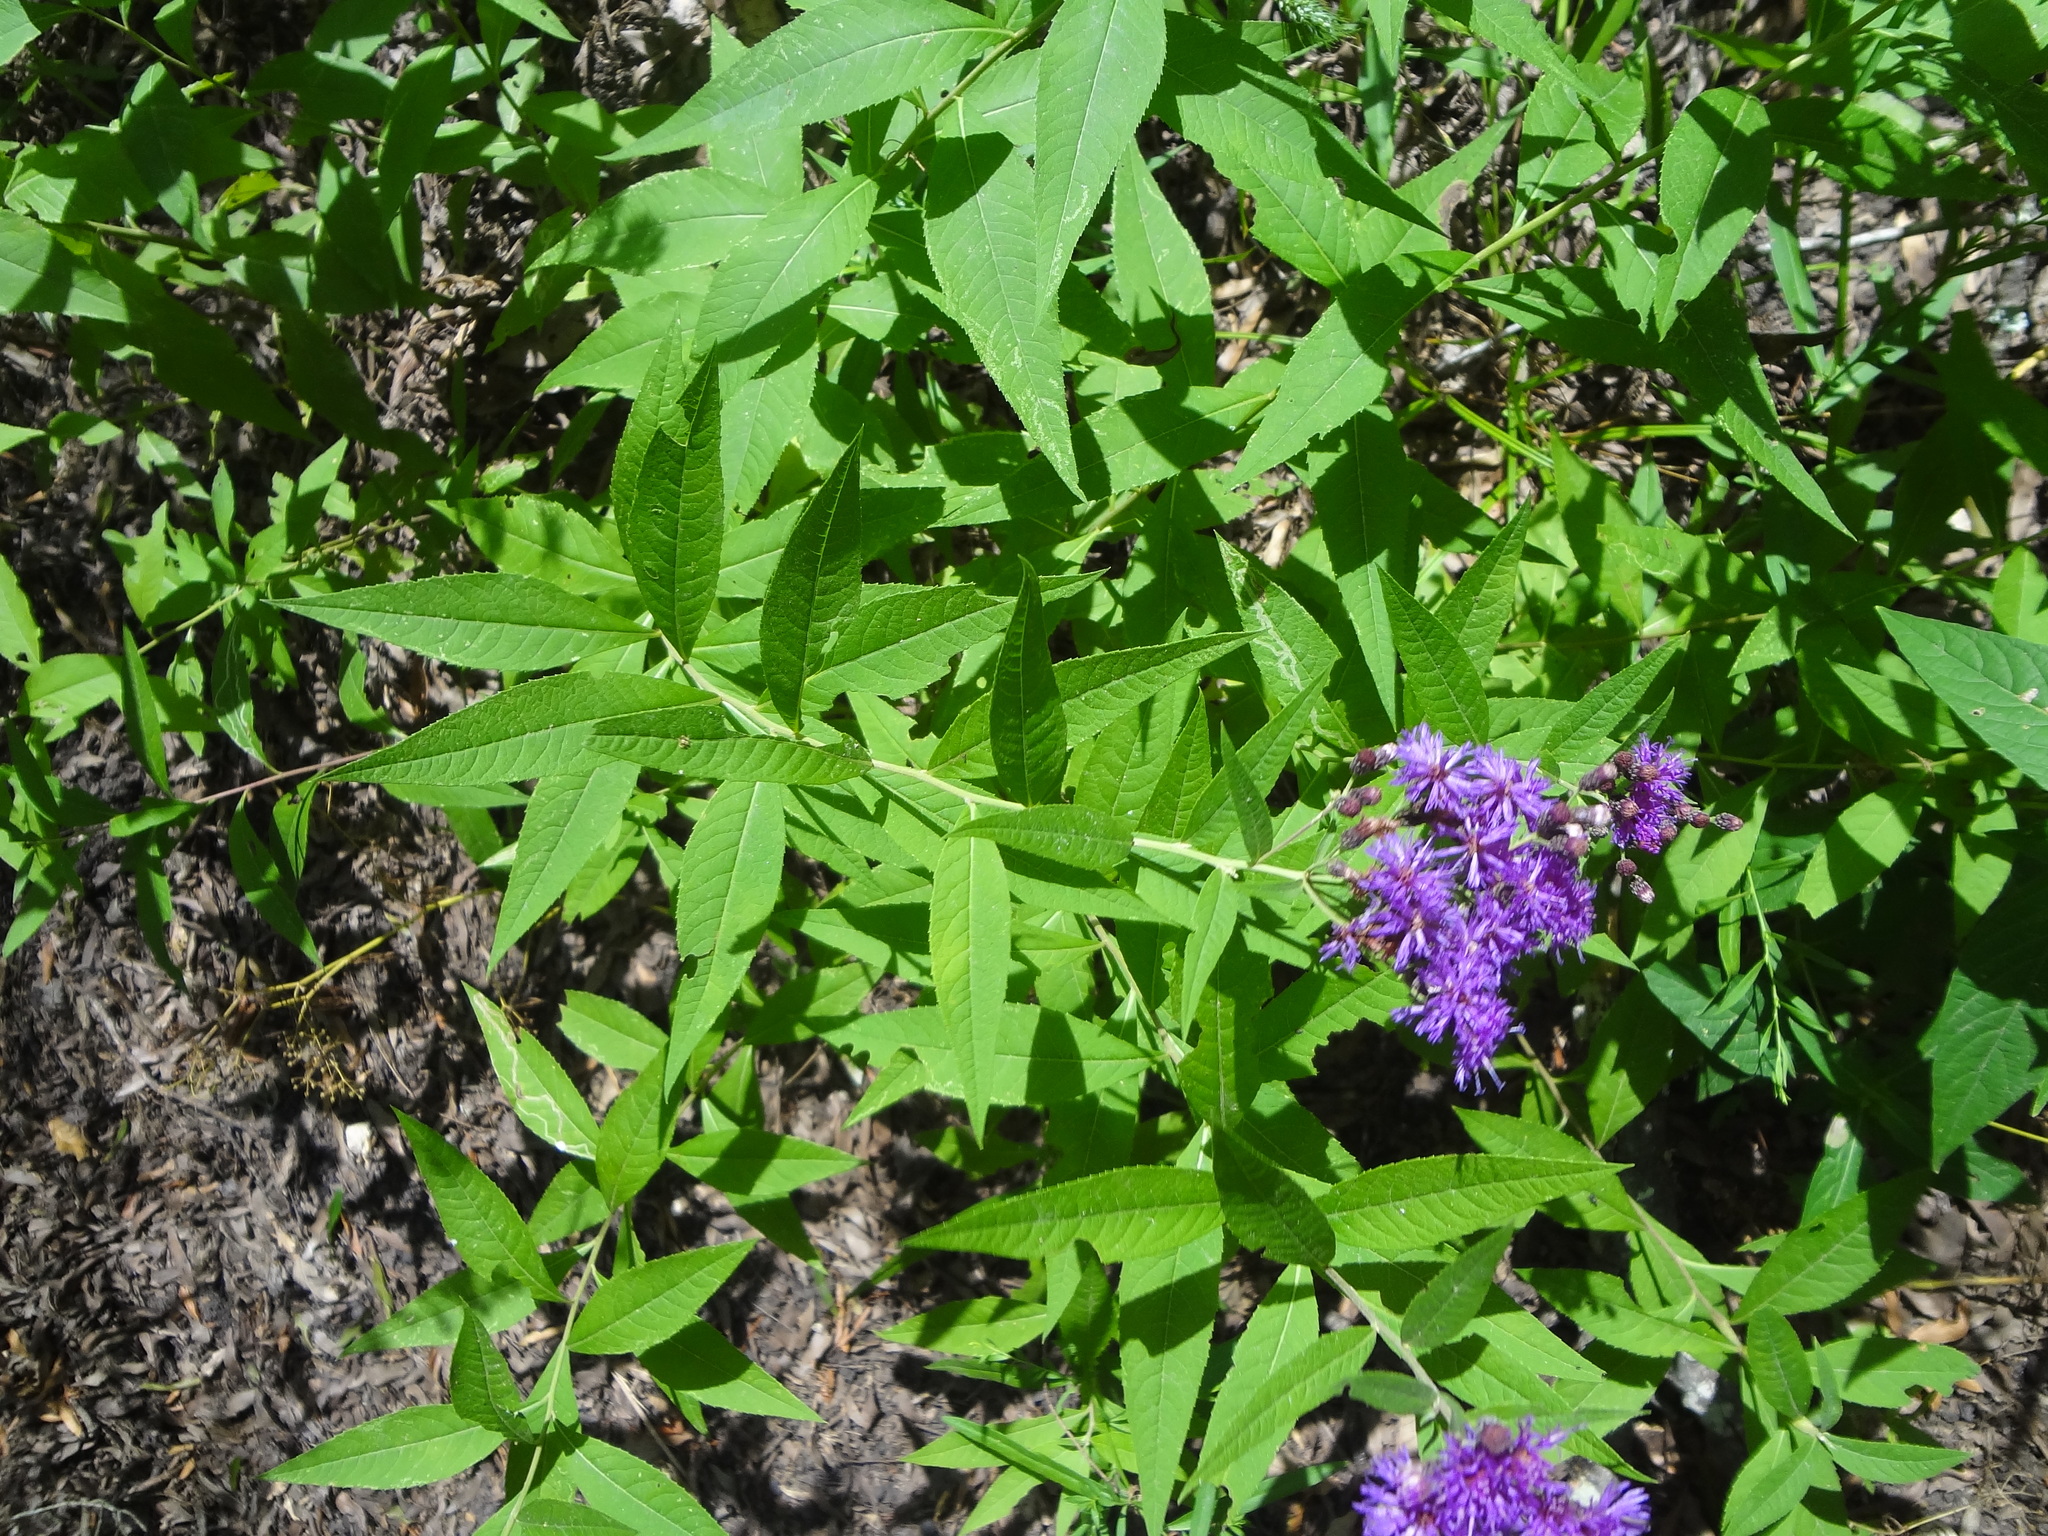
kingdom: Plantae
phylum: Tracheophyta
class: Magnoliopsida
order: Asterales
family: Asteraceae
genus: Vernonia
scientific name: Vernonia baldwinii
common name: Western ironweed
